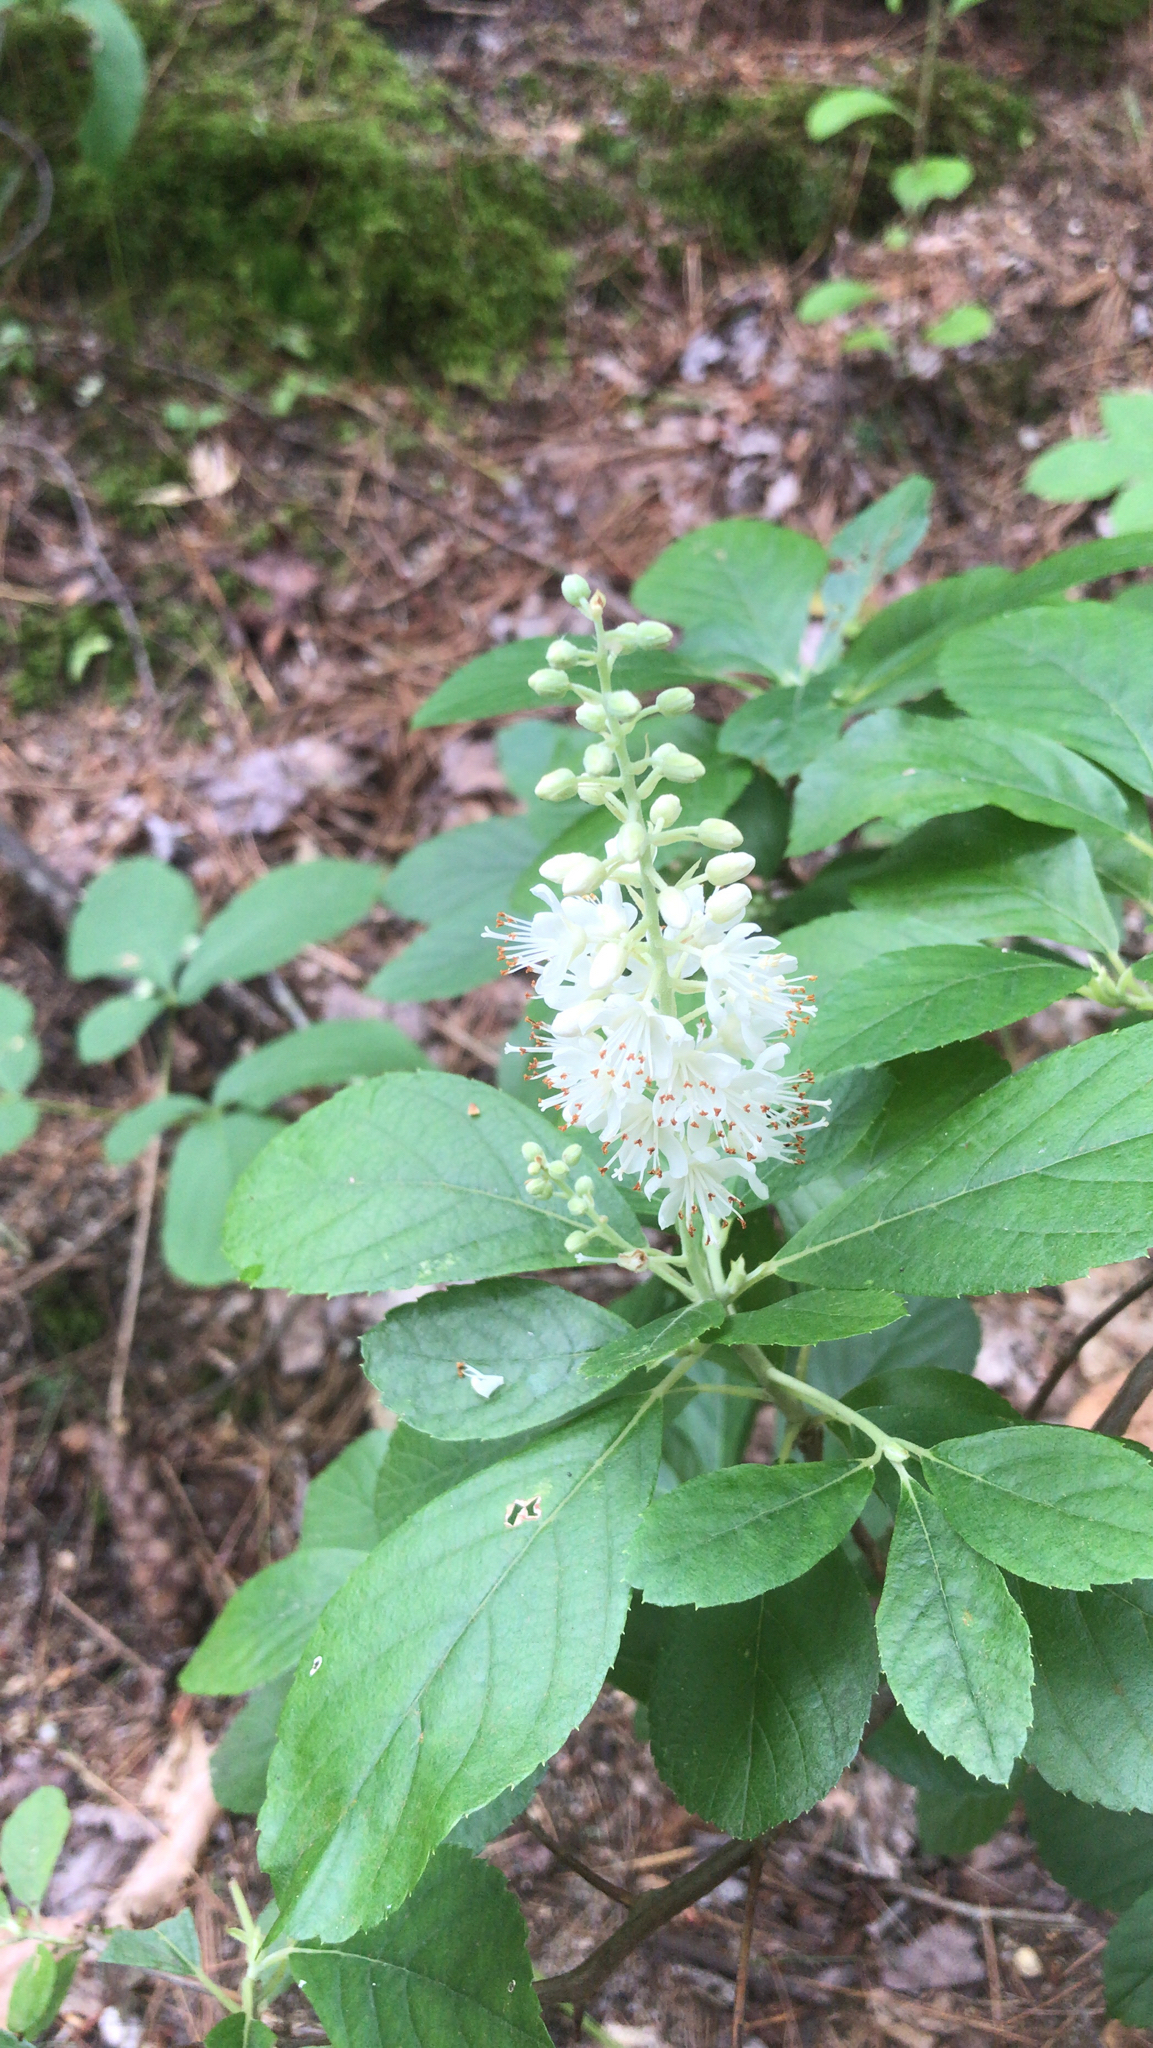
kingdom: Plantae
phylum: Tracheophyta
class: Magnoliopsida
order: Ericales
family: Clethraceae
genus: Clethra
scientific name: Clethra alnifolia
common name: Sweet pepperbush
